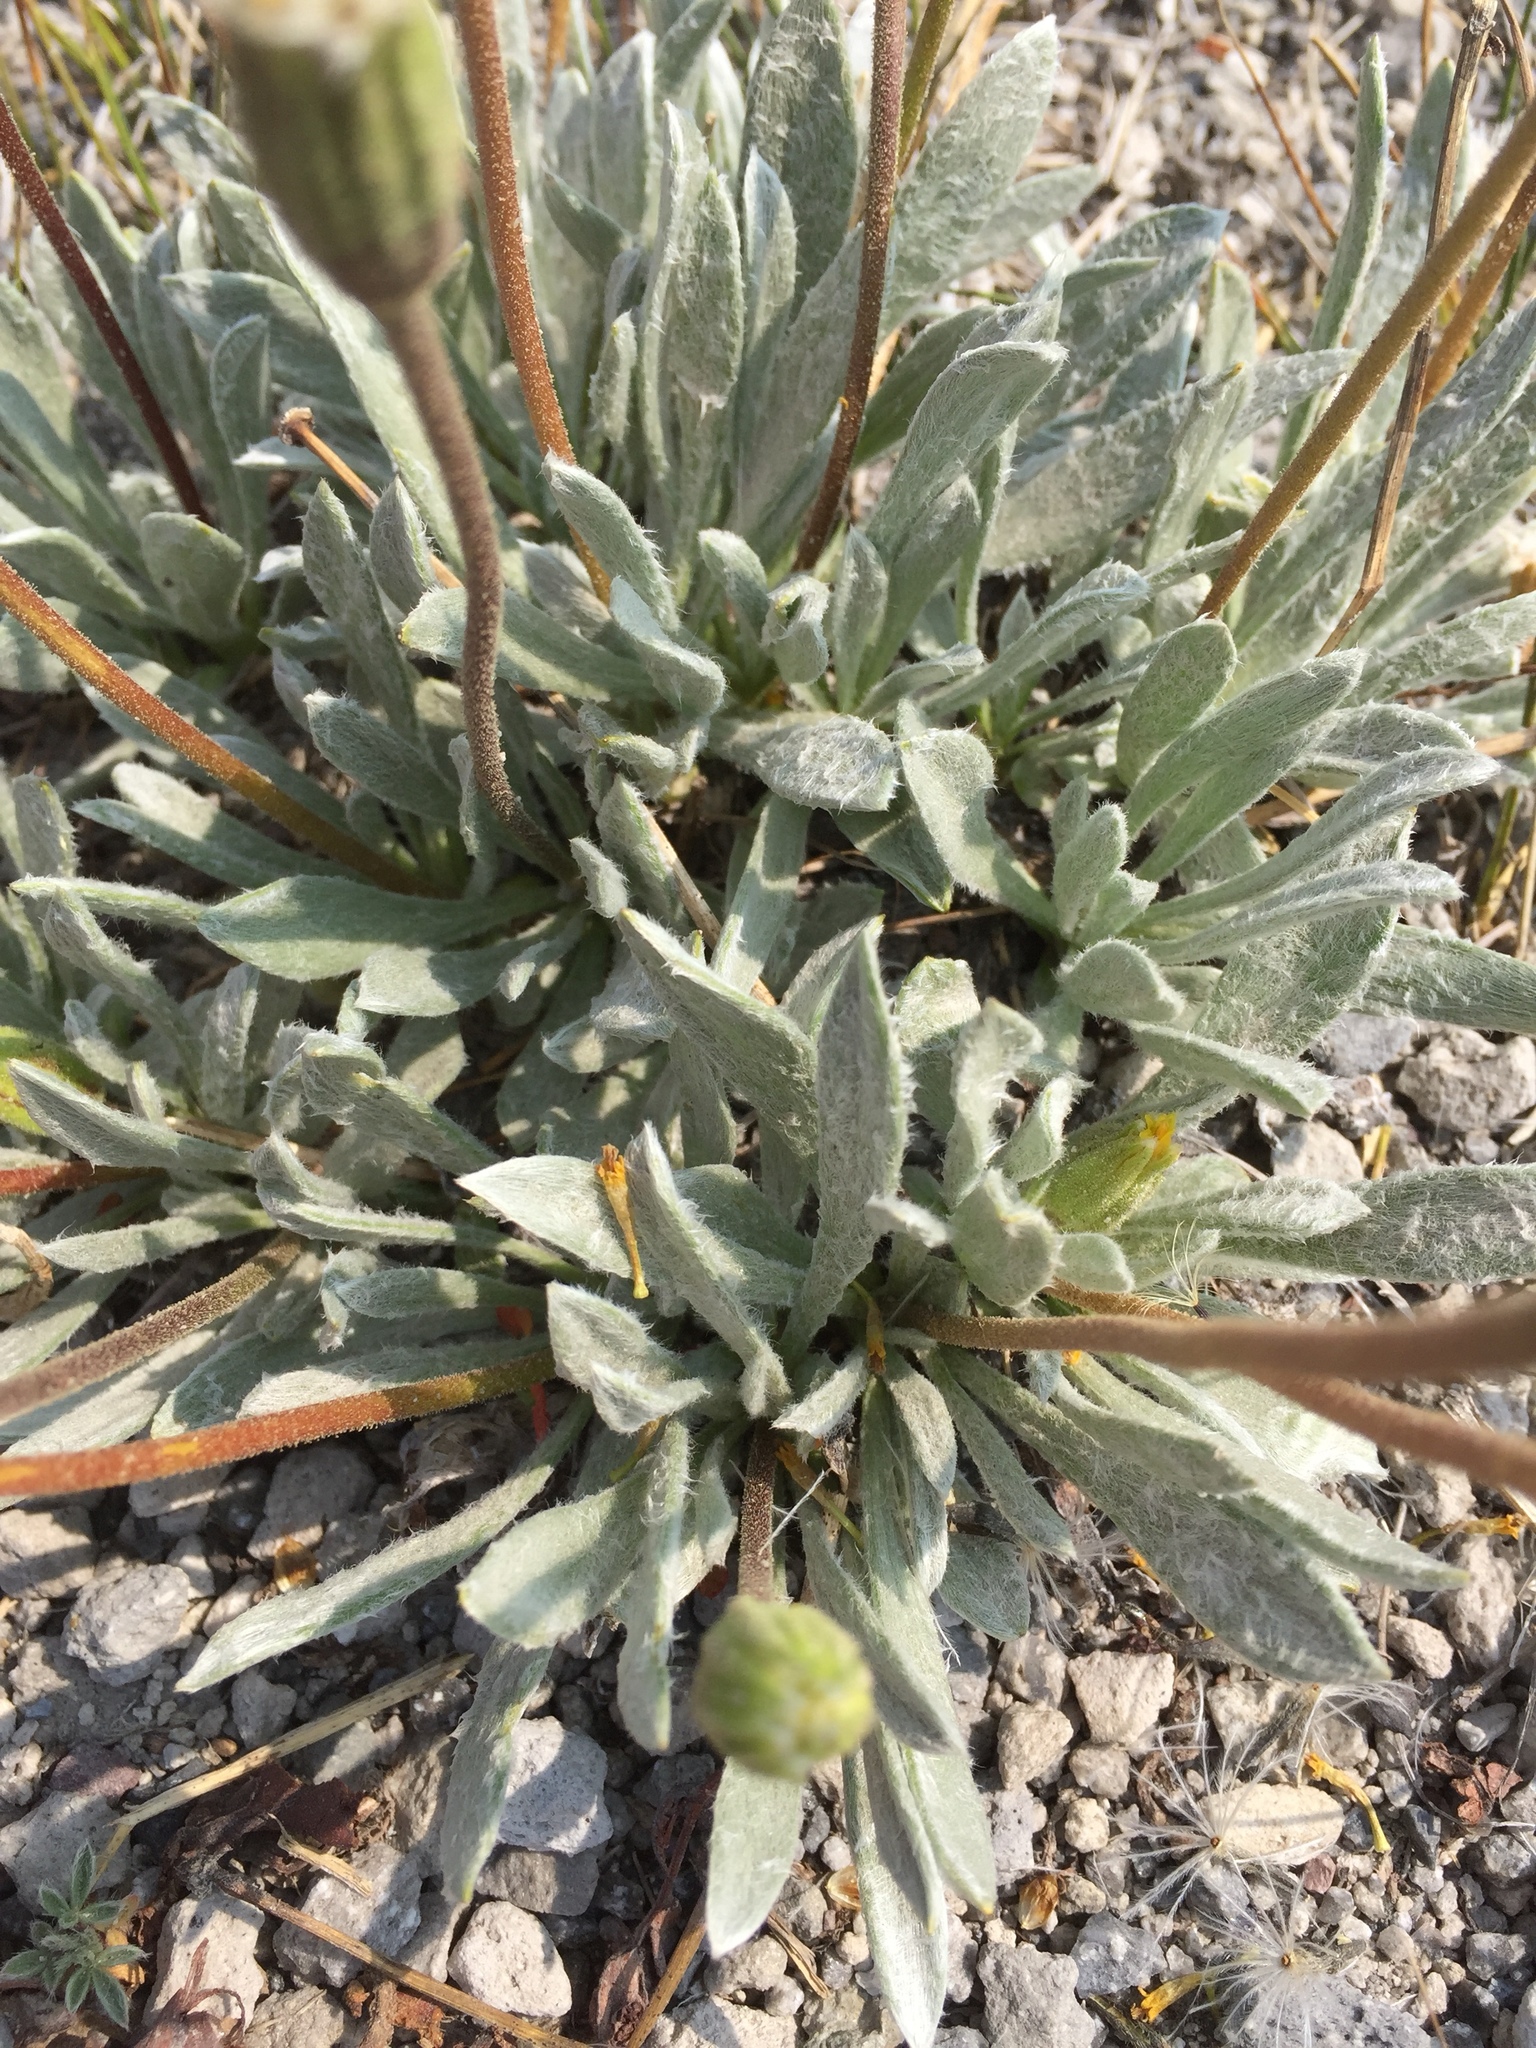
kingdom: Plantae
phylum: Tracheophyta
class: Magnoliopsida
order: Asterales
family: Asteraceae
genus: Raillardella
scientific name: Raillardella argentea
